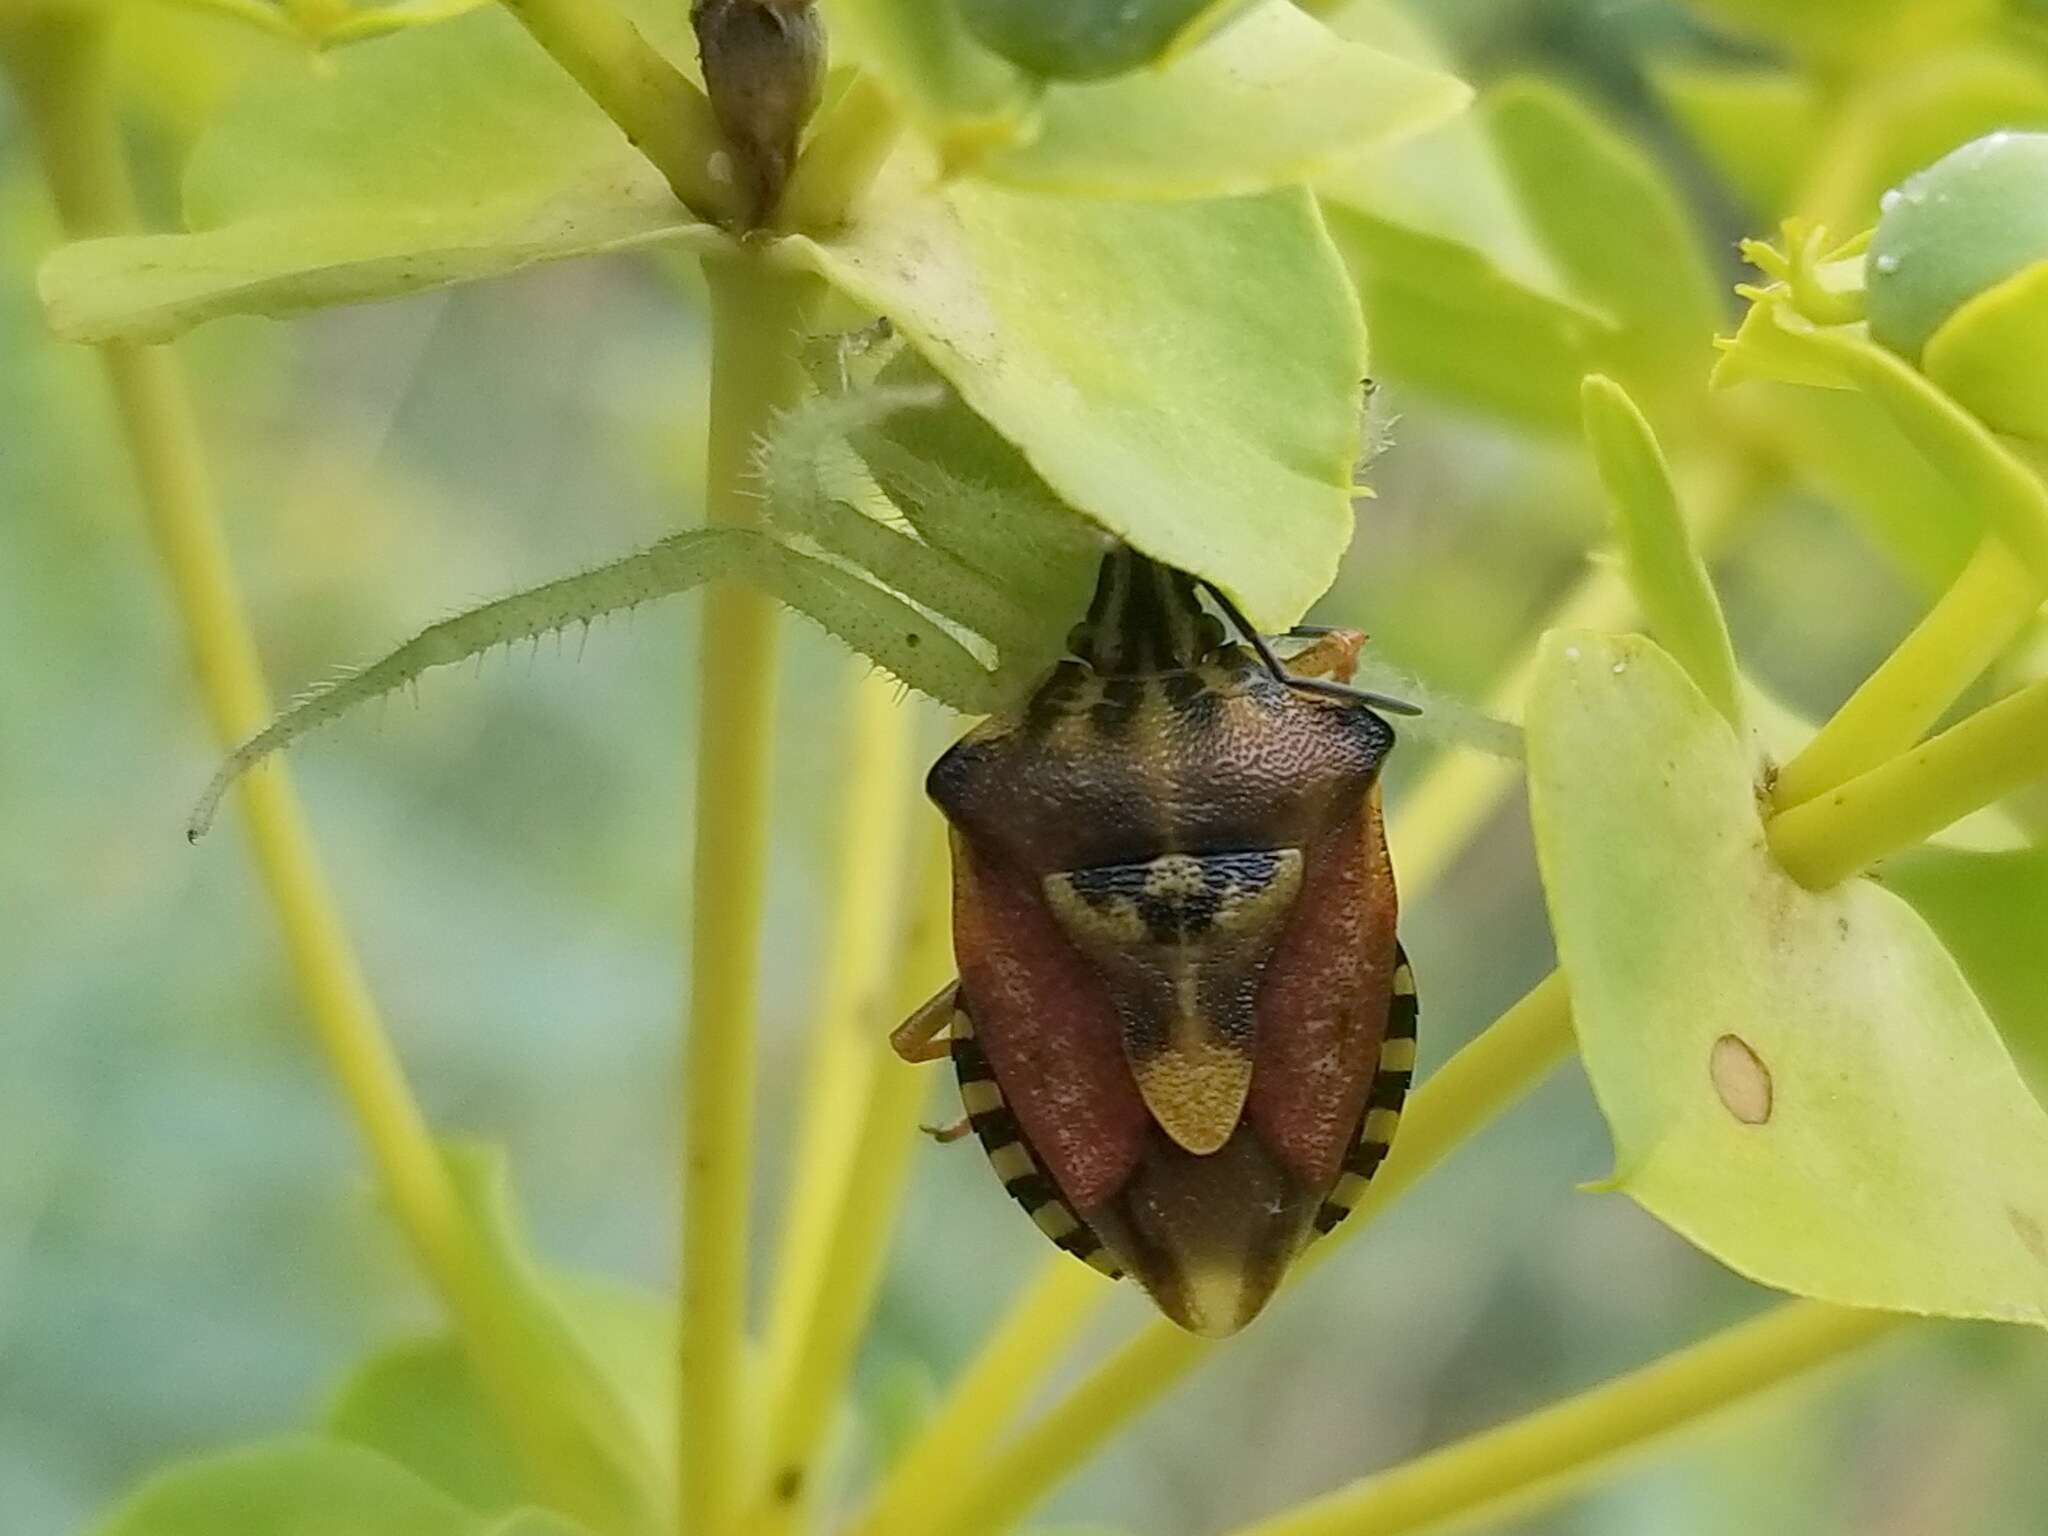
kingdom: Animalia
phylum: Arthropoda
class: Insecta
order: Hemiptera
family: Pentatomidae
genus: Carpocoris
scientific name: Carpocoris purpureipennis
